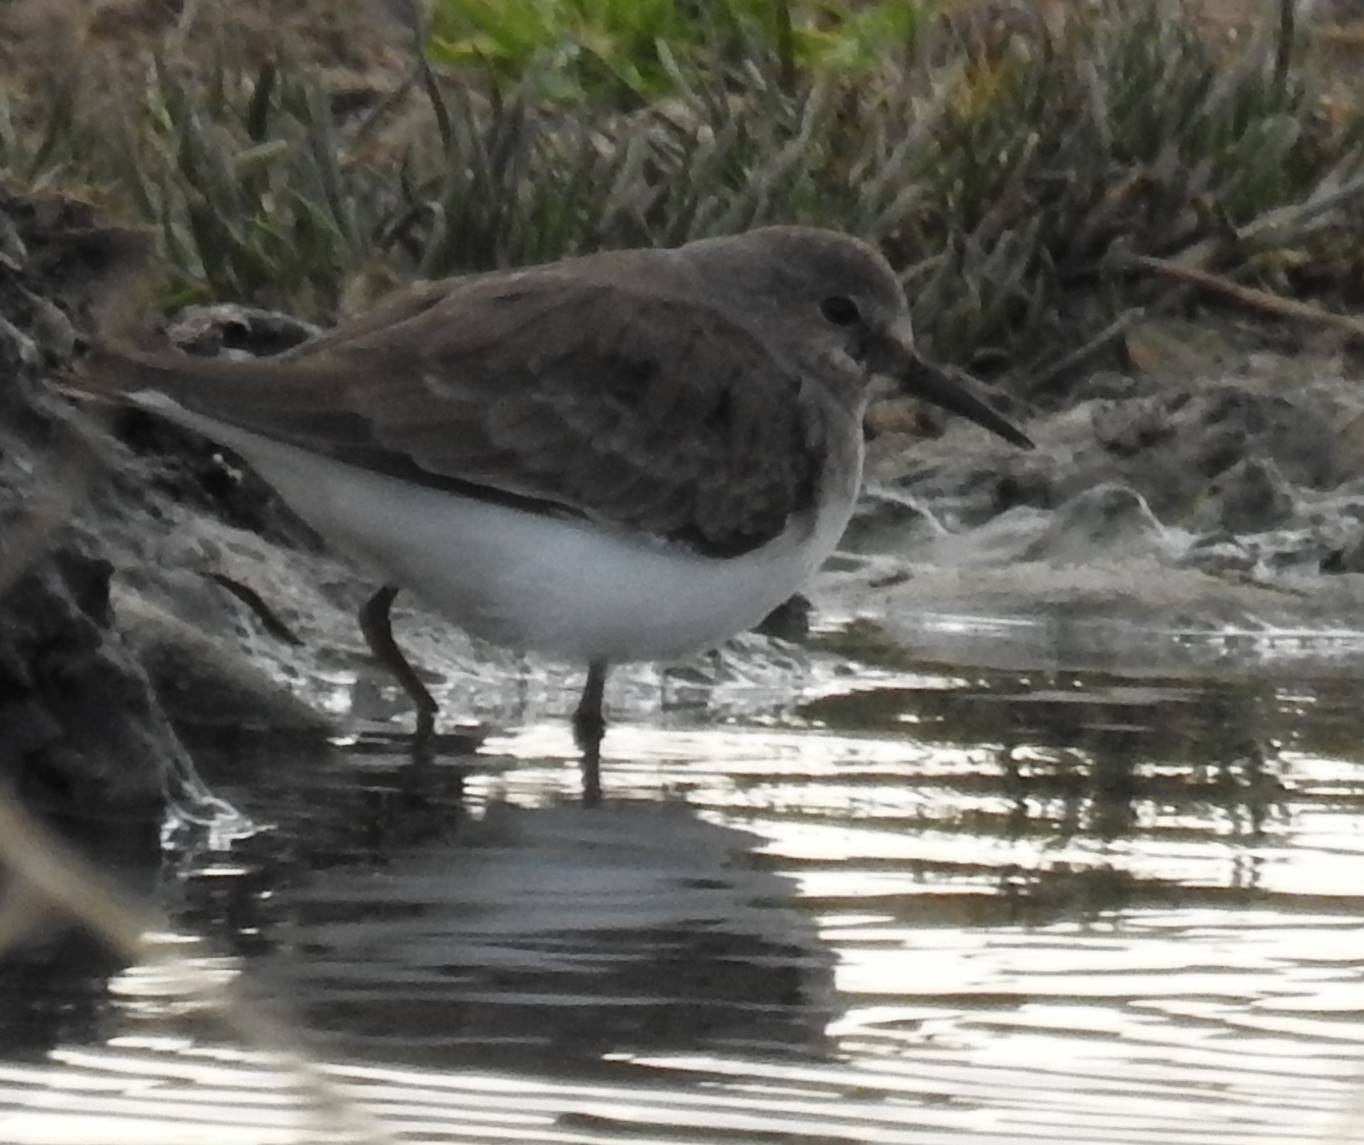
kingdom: Animalia
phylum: Chordata
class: Aves
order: Charadriiformes
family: Scolopacidae
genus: Calidris
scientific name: Calidris temminckii
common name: Temminck's stint
